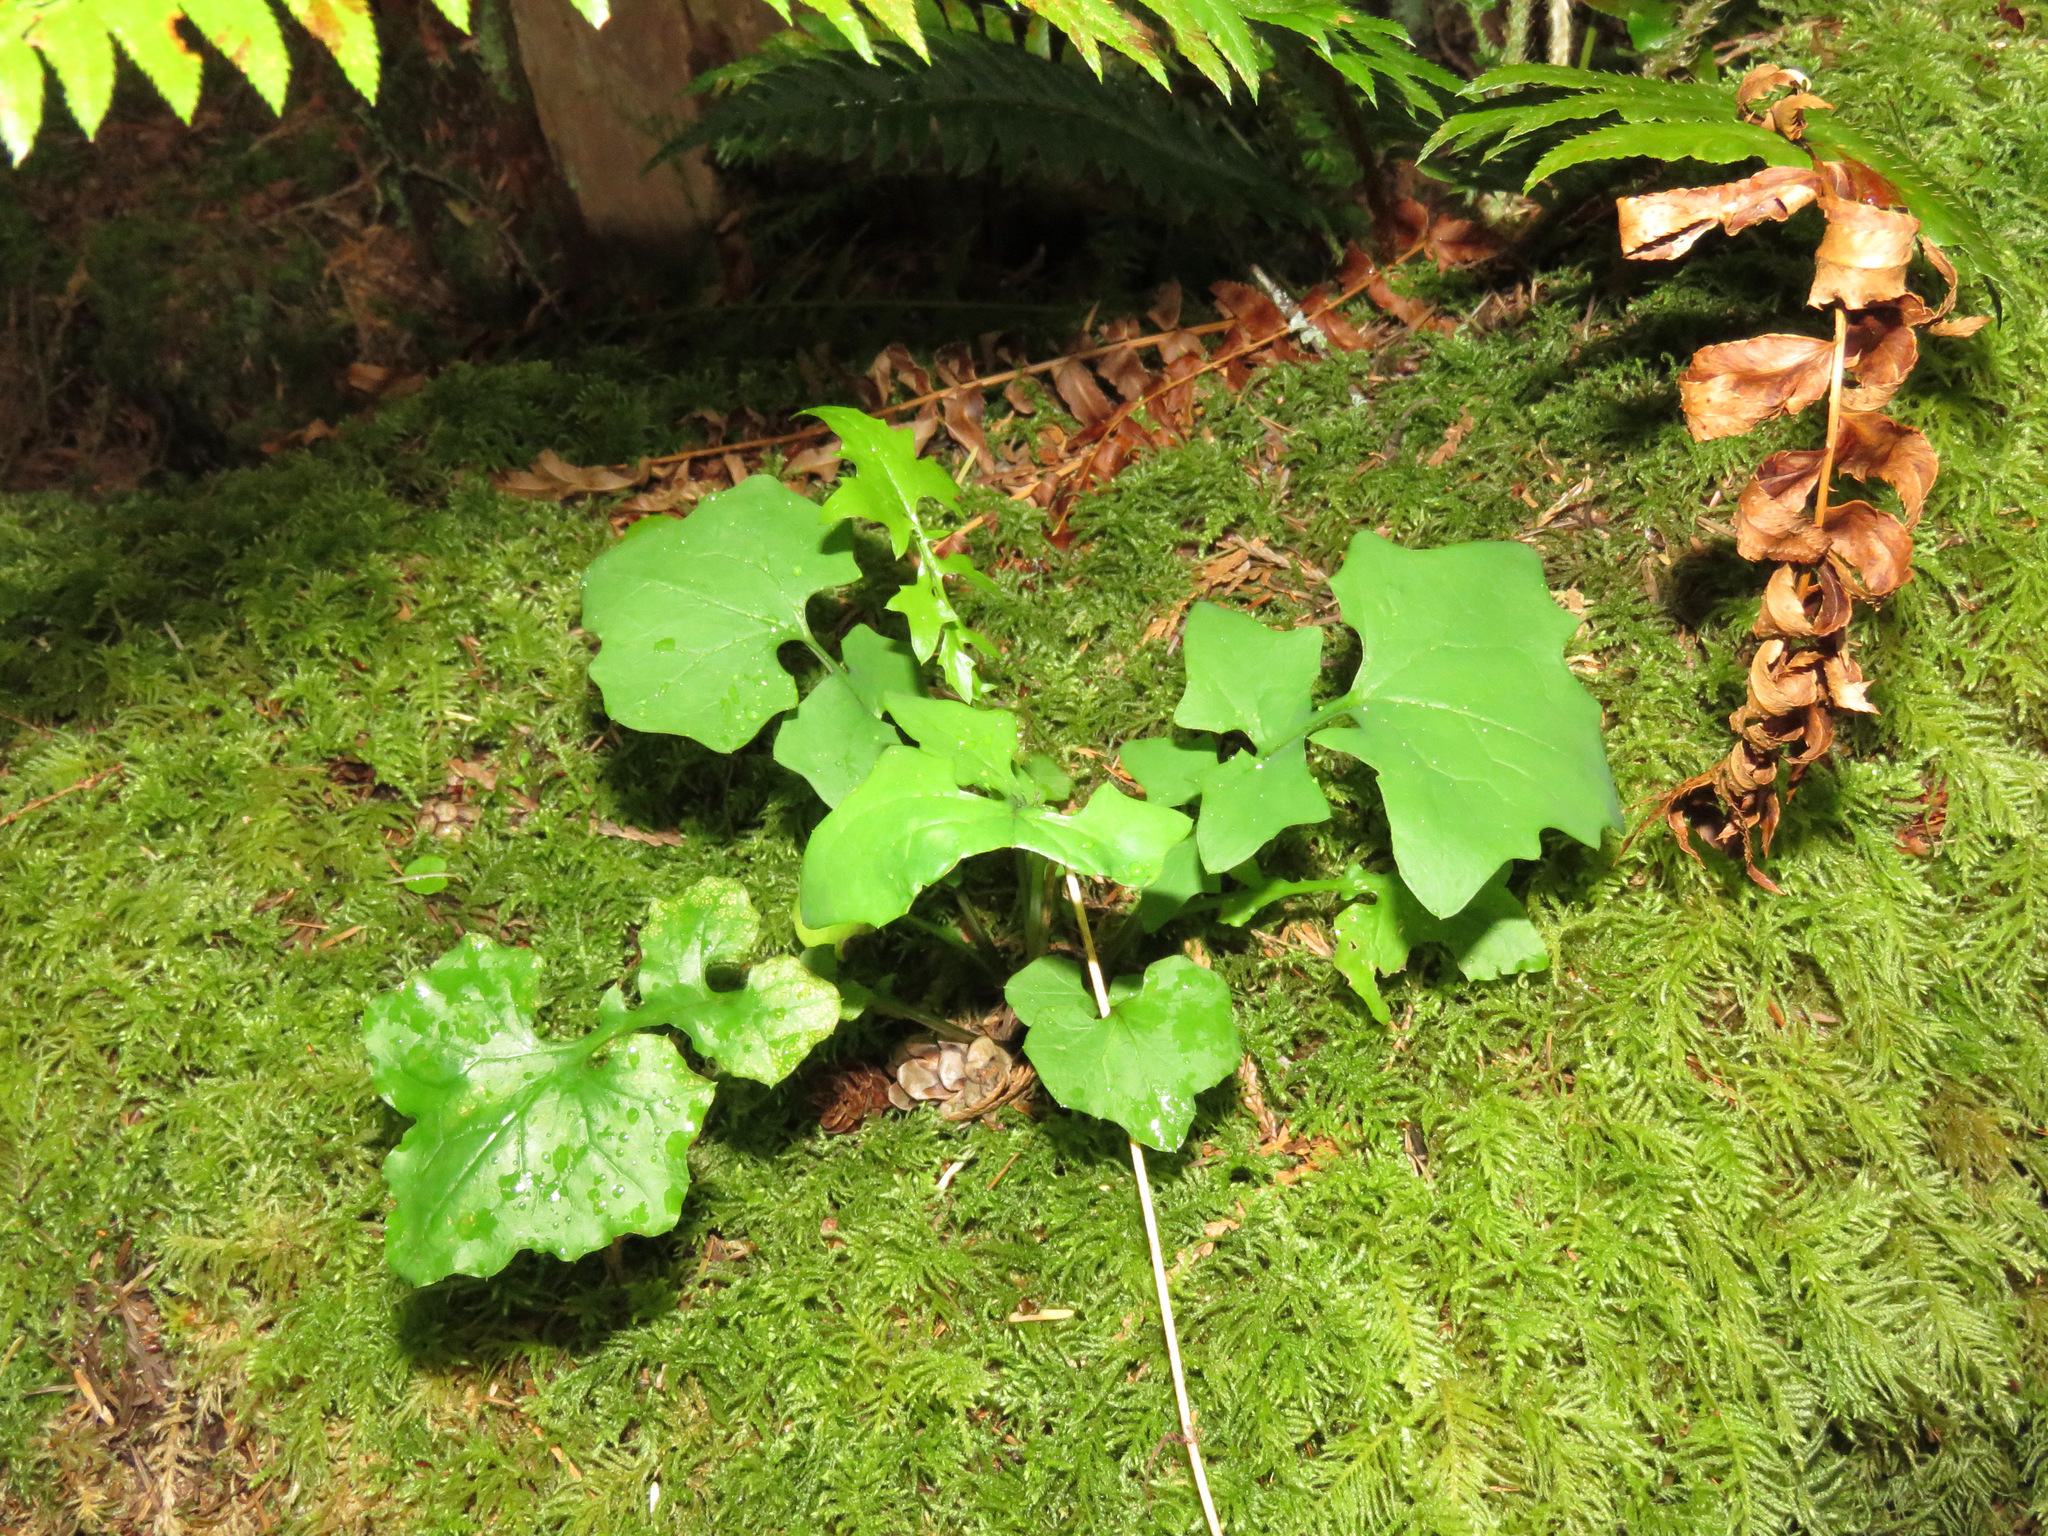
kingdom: Plantae
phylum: Tracheophyta
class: Magnoliopsida
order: Asterales
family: Asteraceae
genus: Mycelis
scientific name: Mycelis muralis
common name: Wall lettuce
